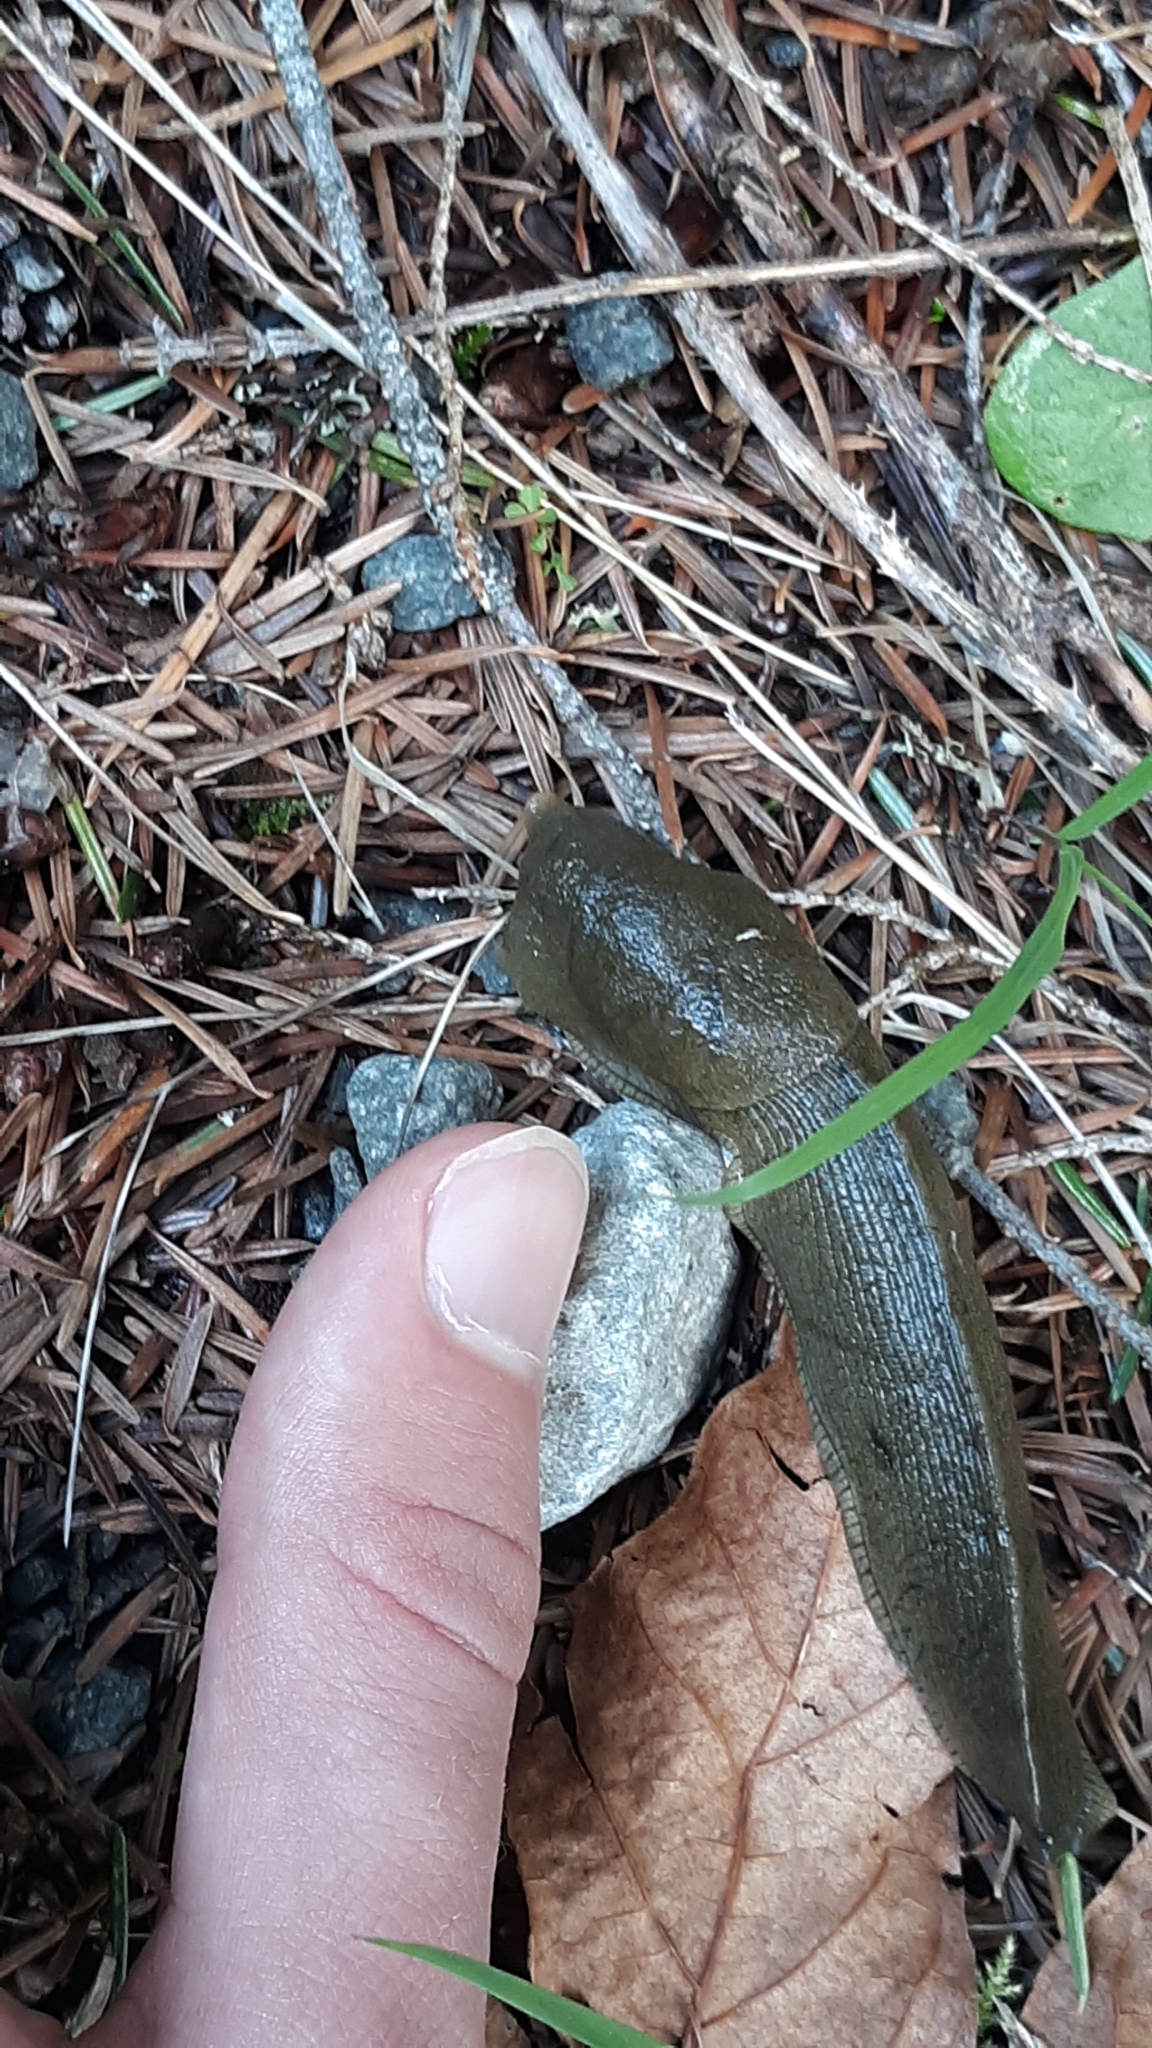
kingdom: Animalia
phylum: Mollusca
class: Gastropoda
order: Stylommatophora
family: Ariolimacidae
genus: Ariolimax
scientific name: Ariolimax columbianus
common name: Pacific banana slug
